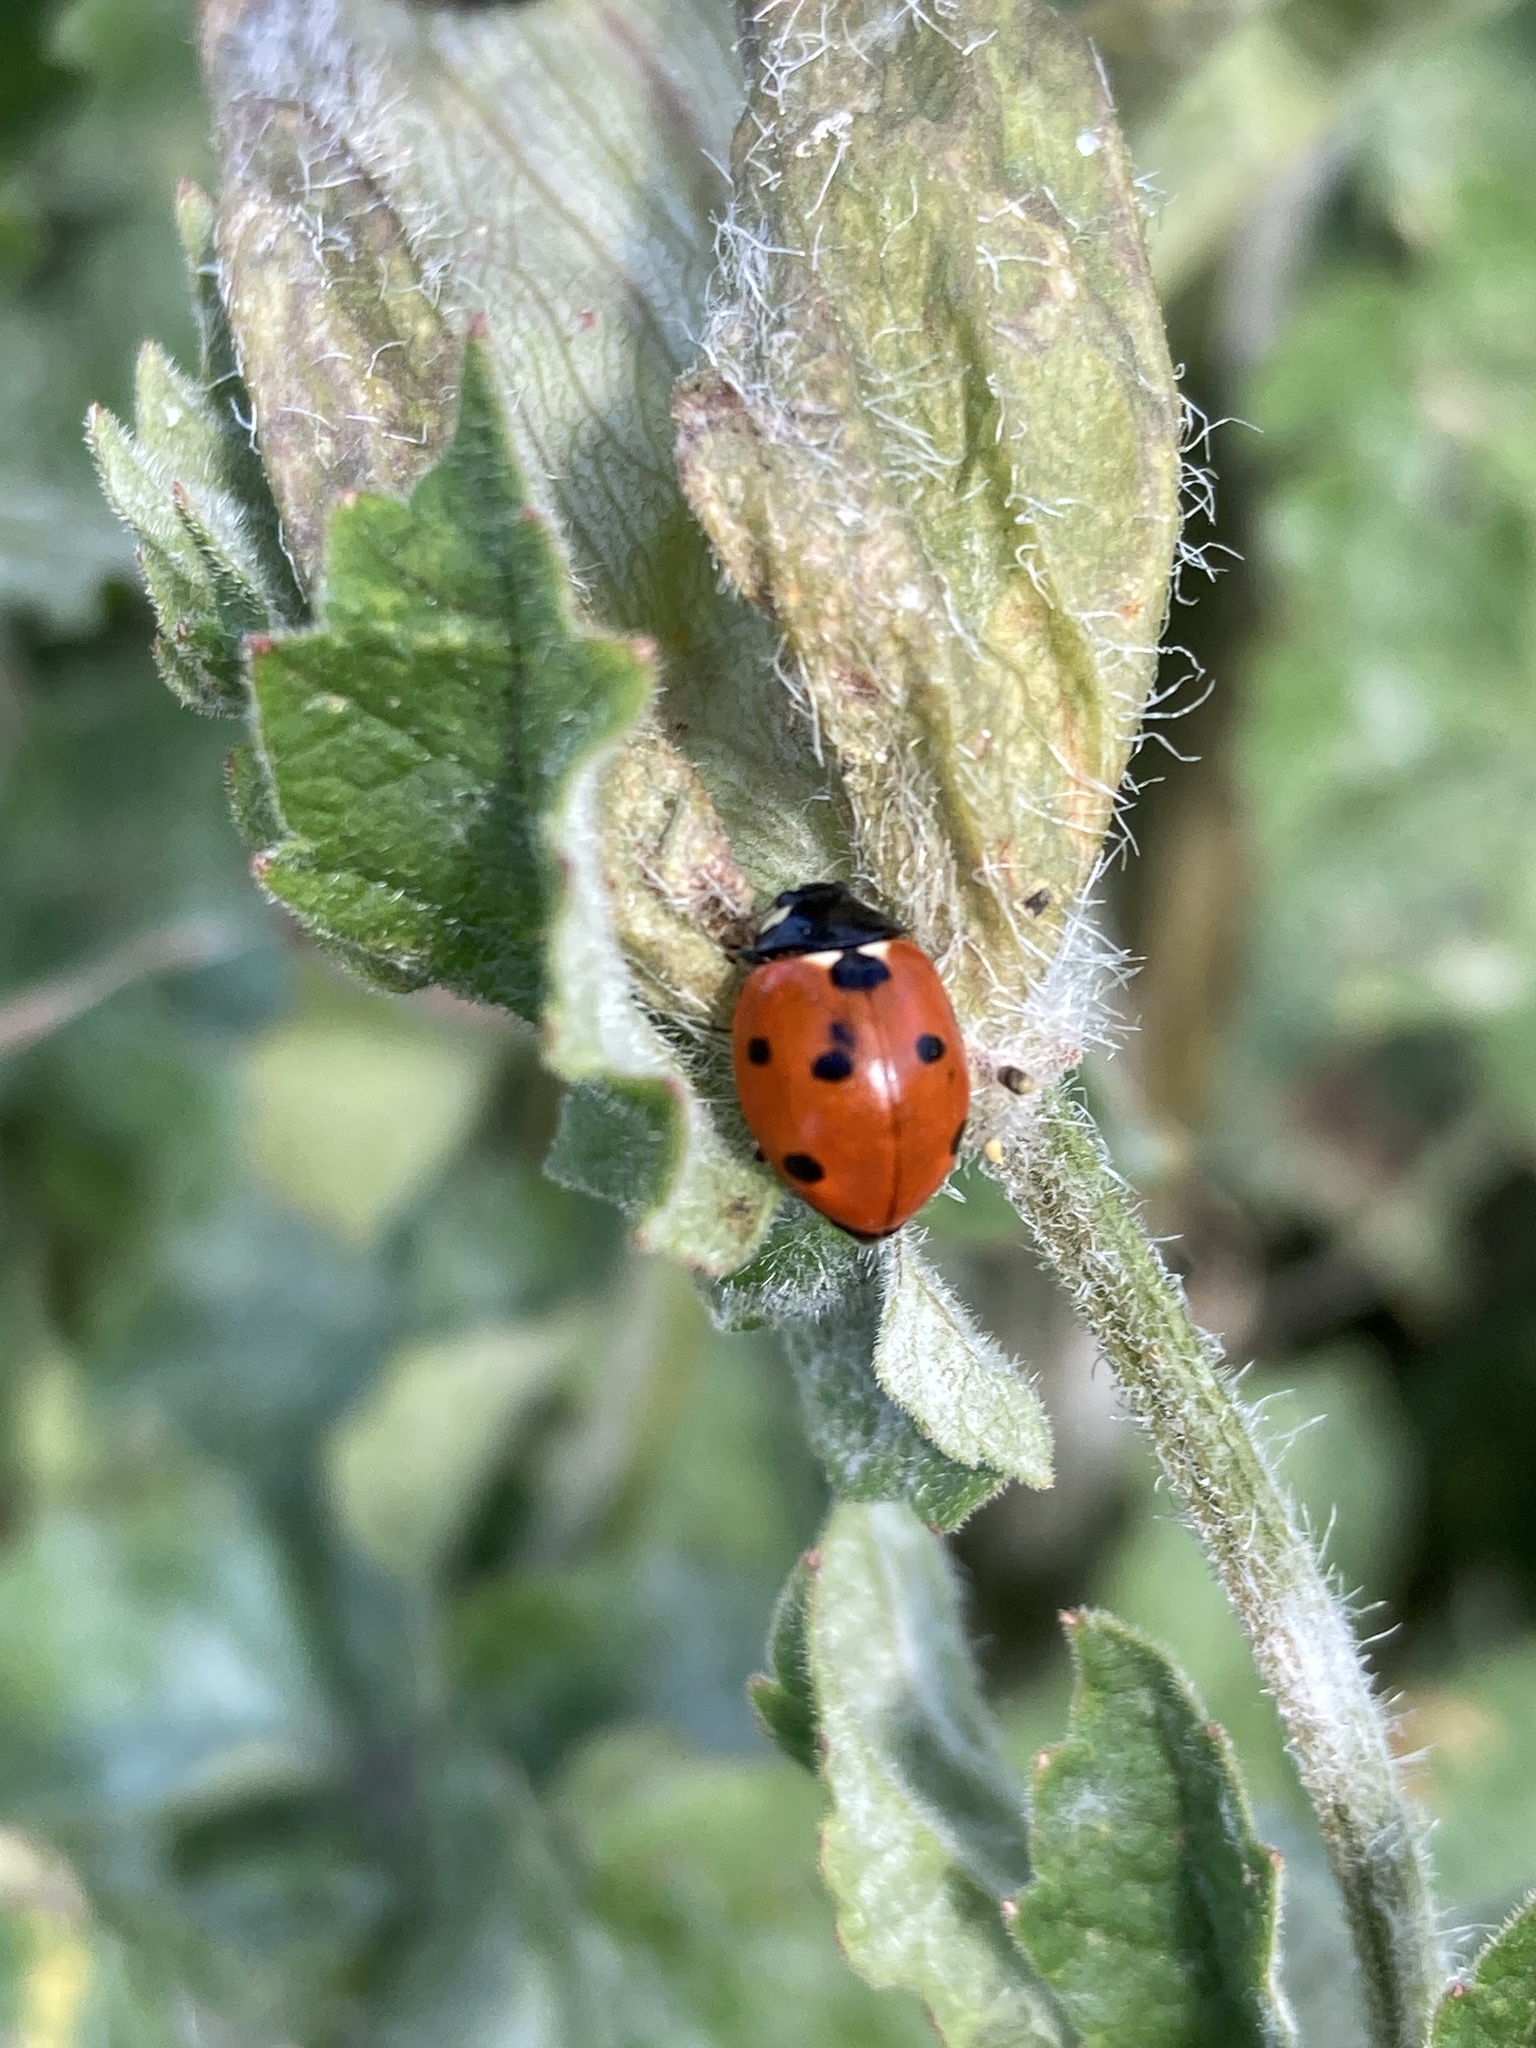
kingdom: Animalia
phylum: Arthropoda
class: Insecta
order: Coleoptera
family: Coccinellidae
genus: Coccinella
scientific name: Coccinella septempunctata
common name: Sevenspotted lady beetle
